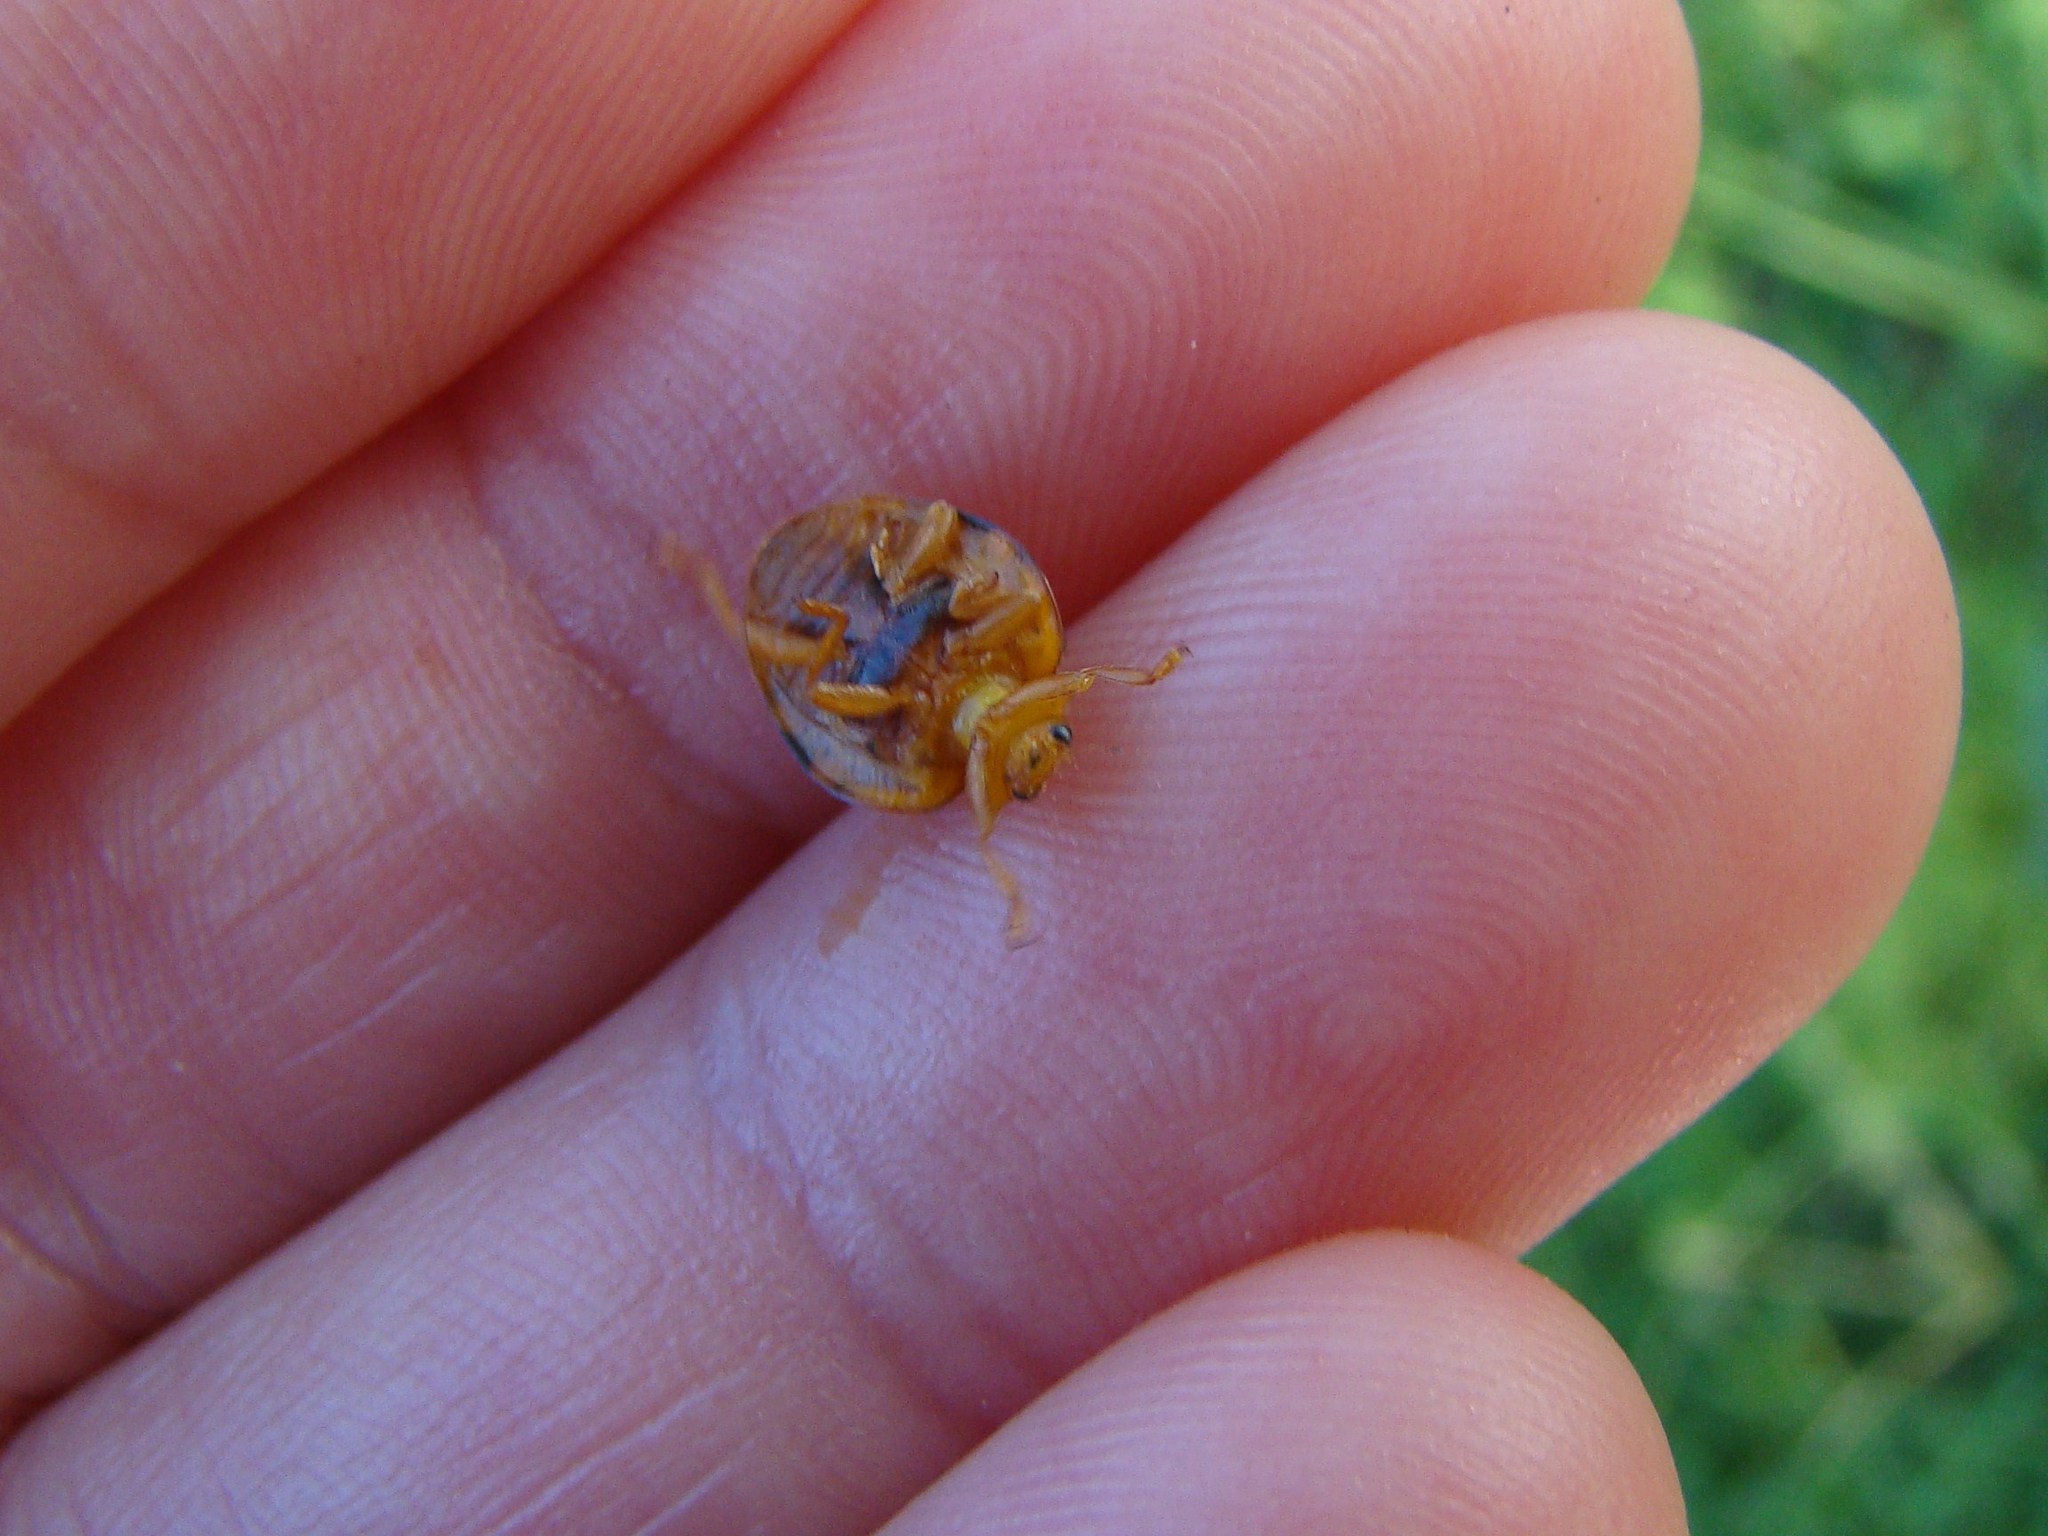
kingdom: Animalia
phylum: Arthropoda
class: Insecta
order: Coleoptera
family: Coccinellidae
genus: Henosepilachna
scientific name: Henosepilachna vigintioctopunctata
